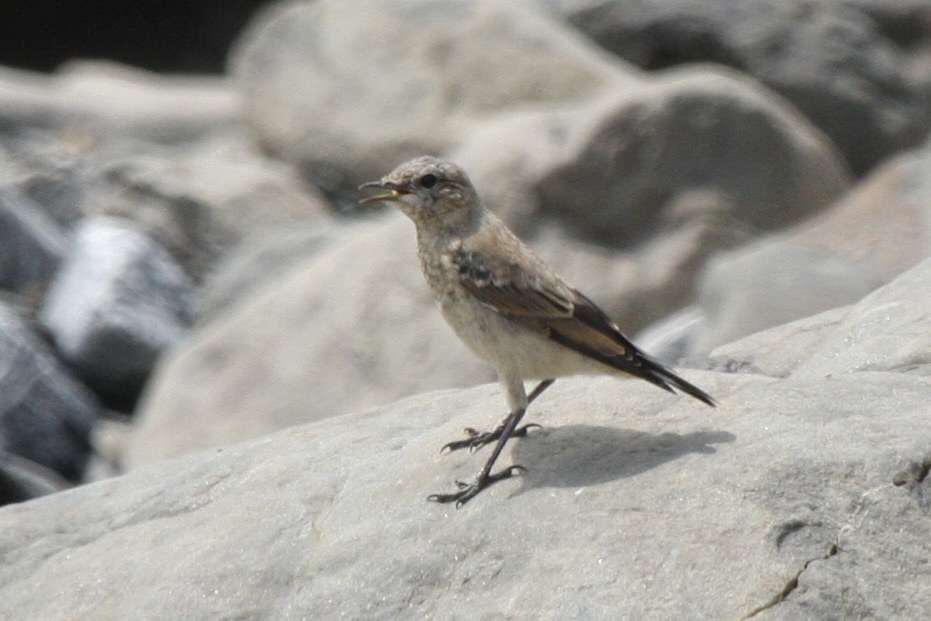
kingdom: Animalia
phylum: Chordata
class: Aves
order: Passeriformes
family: Muscicapidae
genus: Oenanthe
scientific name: Oenanthe oenanthe
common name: Northern wheatear
